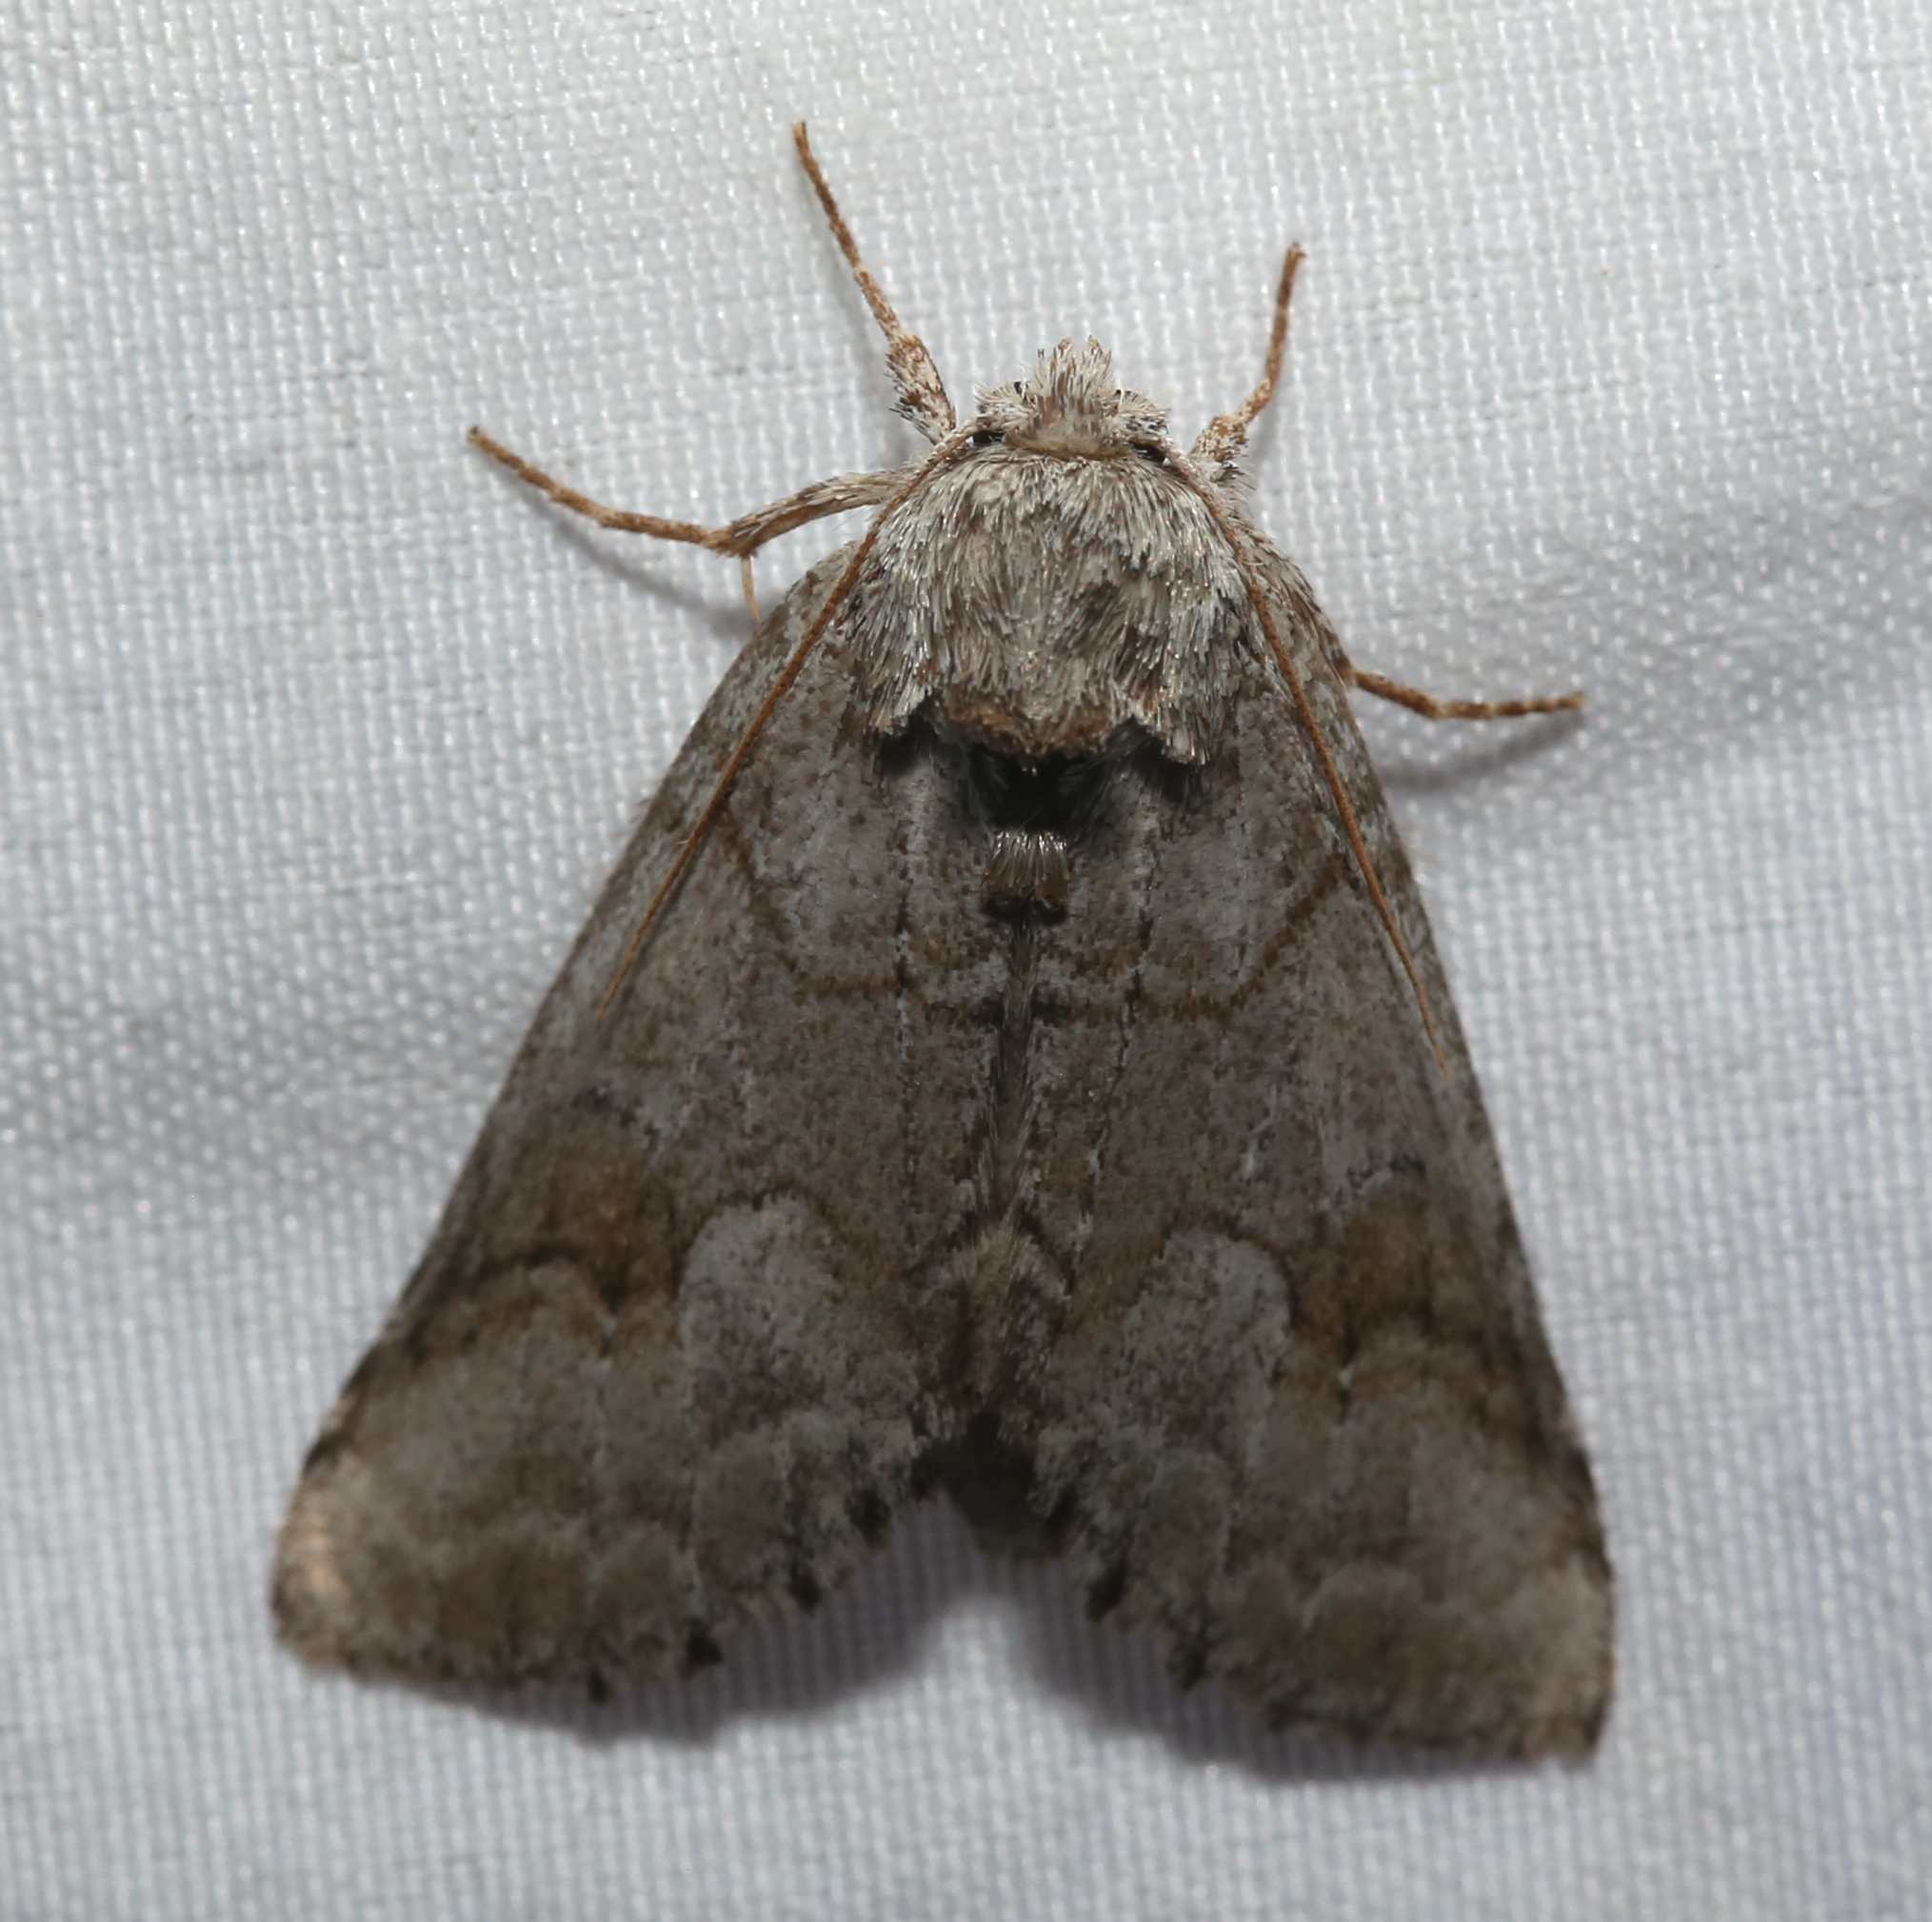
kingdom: Animalia
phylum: Arthropoda
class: Insecta
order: Lepidoptera
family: Notodontidae
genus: Lochmaeus
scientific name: Lochmaeus bilineata
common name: Double-lined prominent
